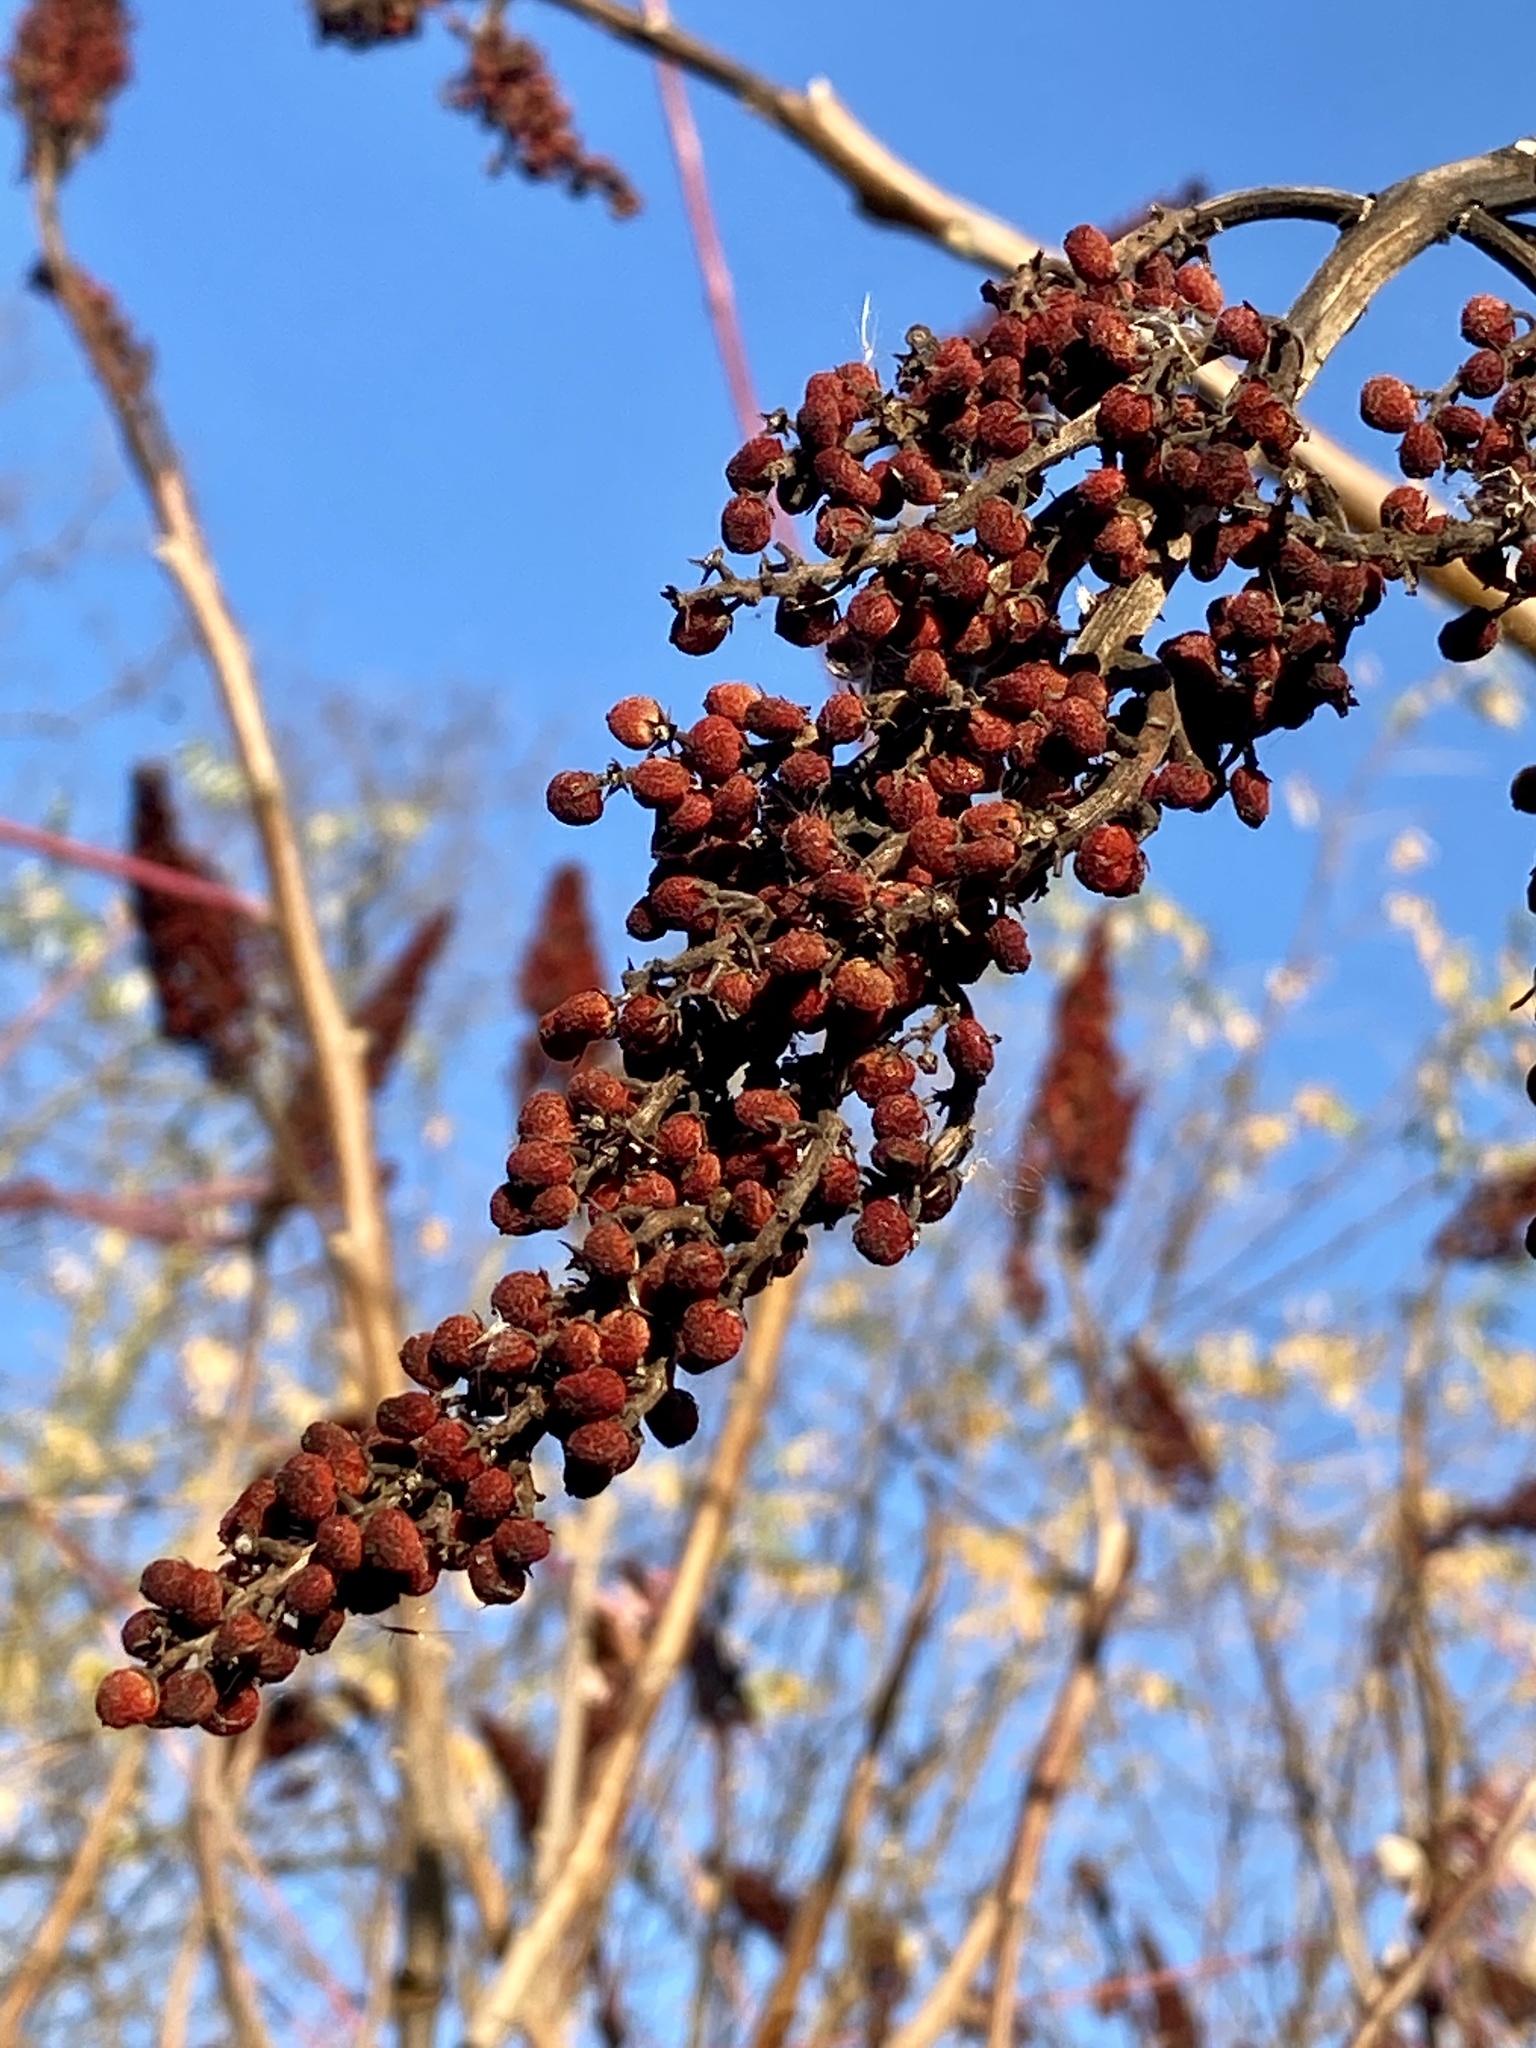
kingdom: Plantae
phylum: Tracheophyta
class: Magnoliopsida
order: Sapindales
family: Anacardiaceae
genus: Rhus
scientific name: Rhus glabra
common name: Scarlet sumac
